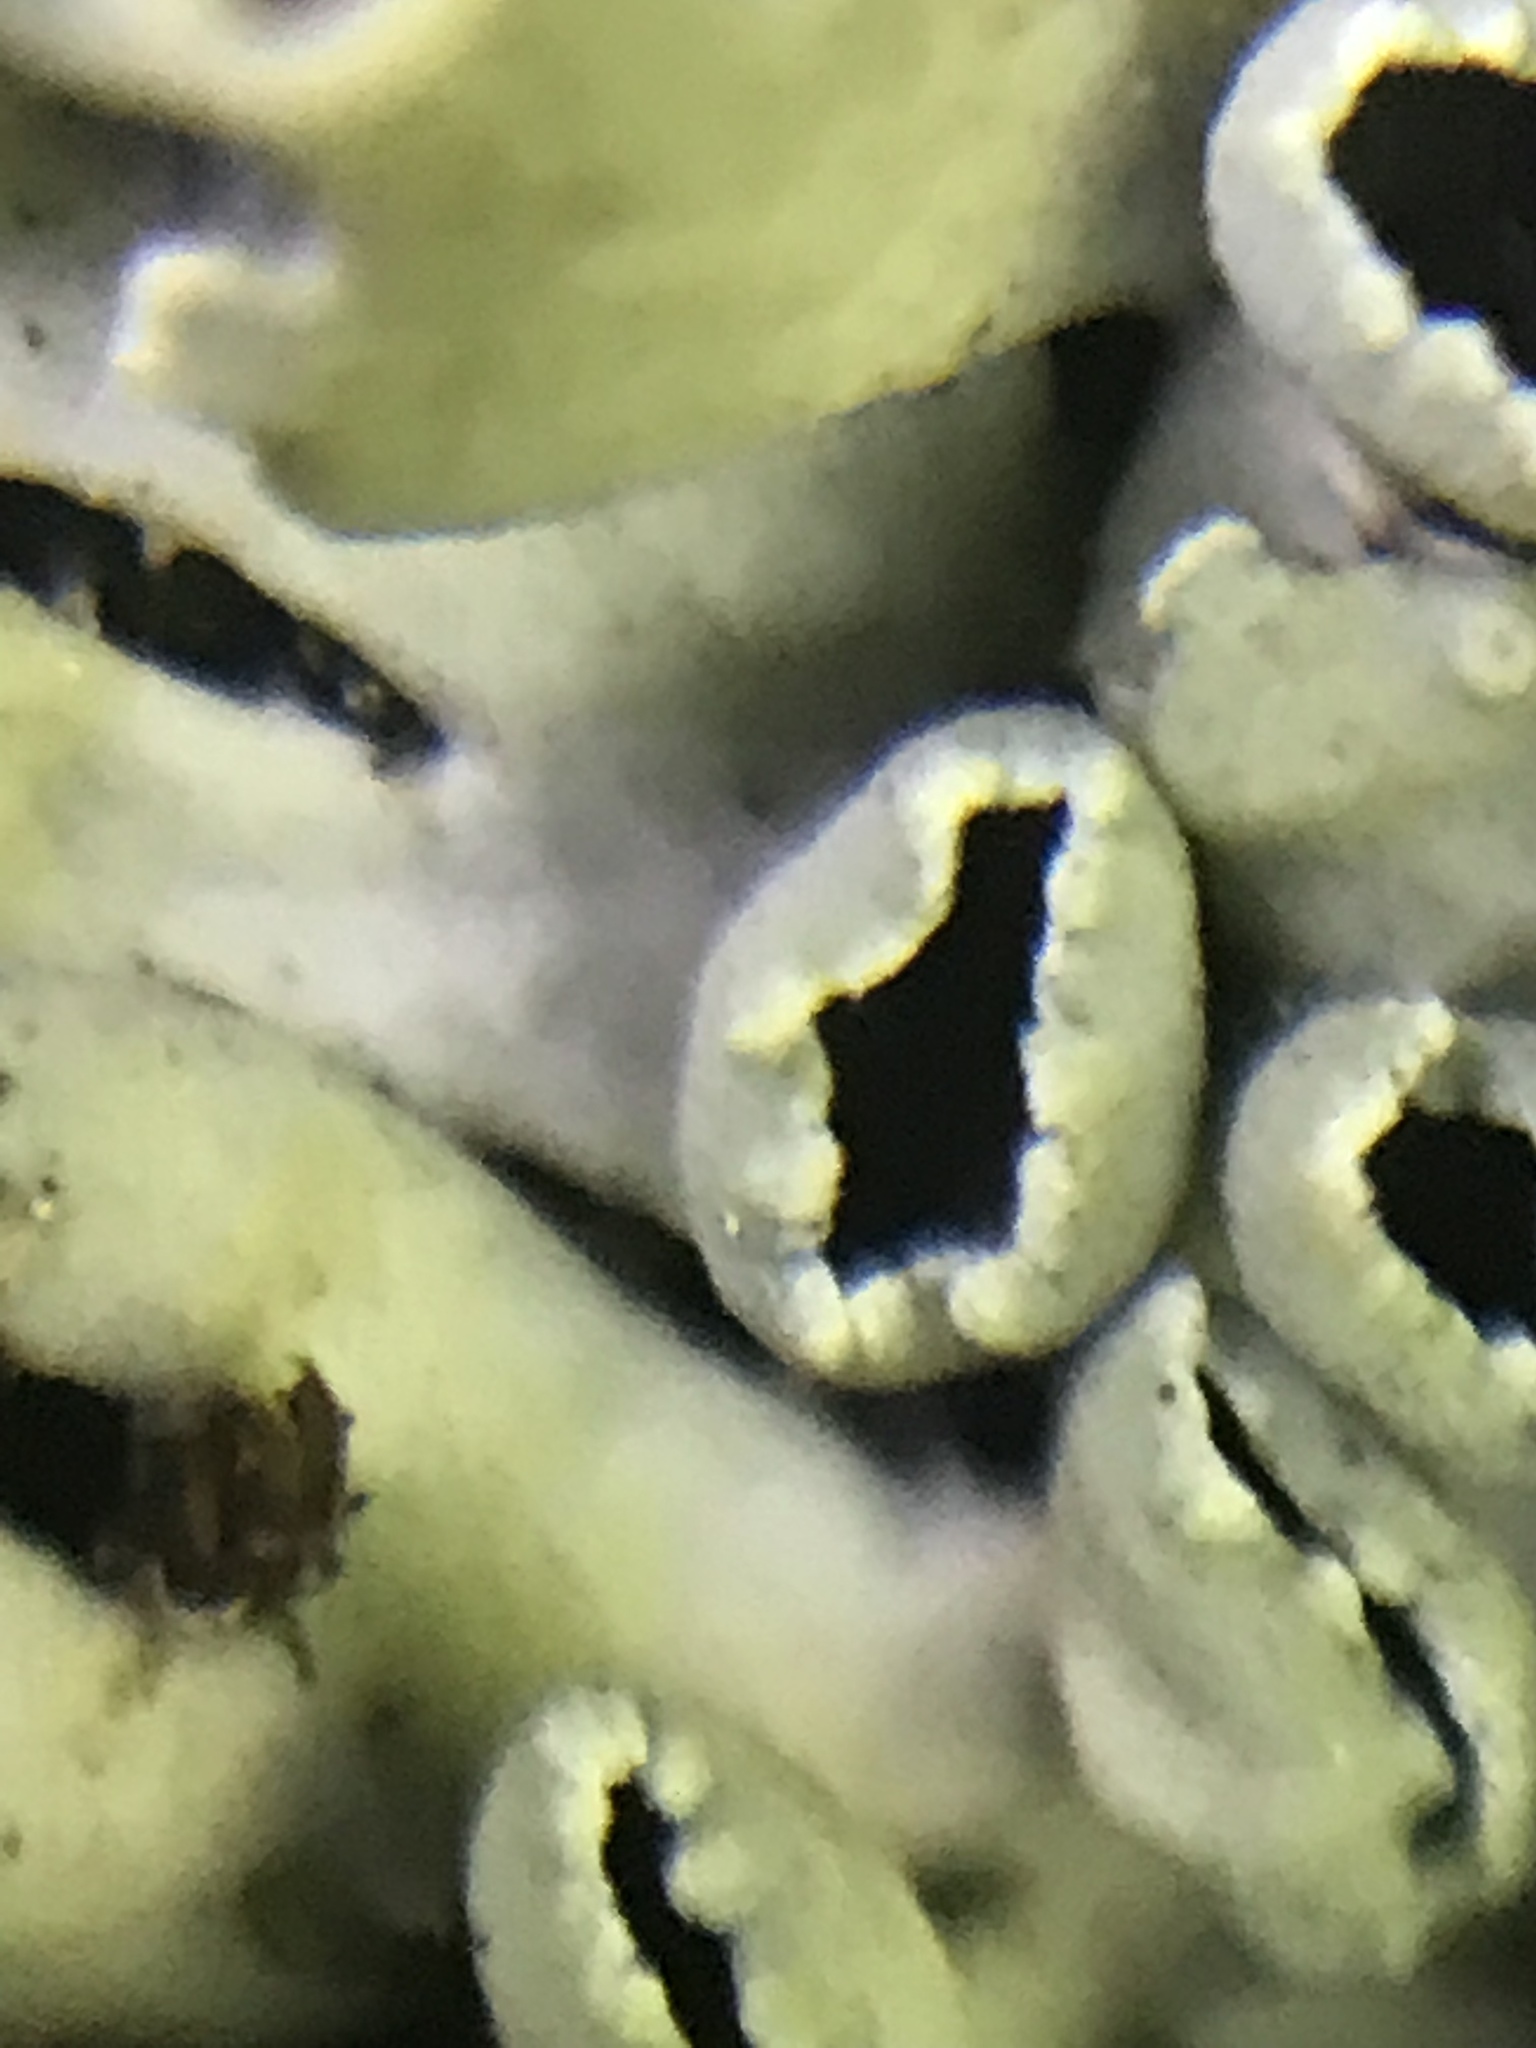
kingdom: Fungi
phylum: Ascomycota
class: Lecanoromycetes
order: Caliciales
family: Physciaceae
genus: Heterodermia
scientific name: Heterodermia diademata
